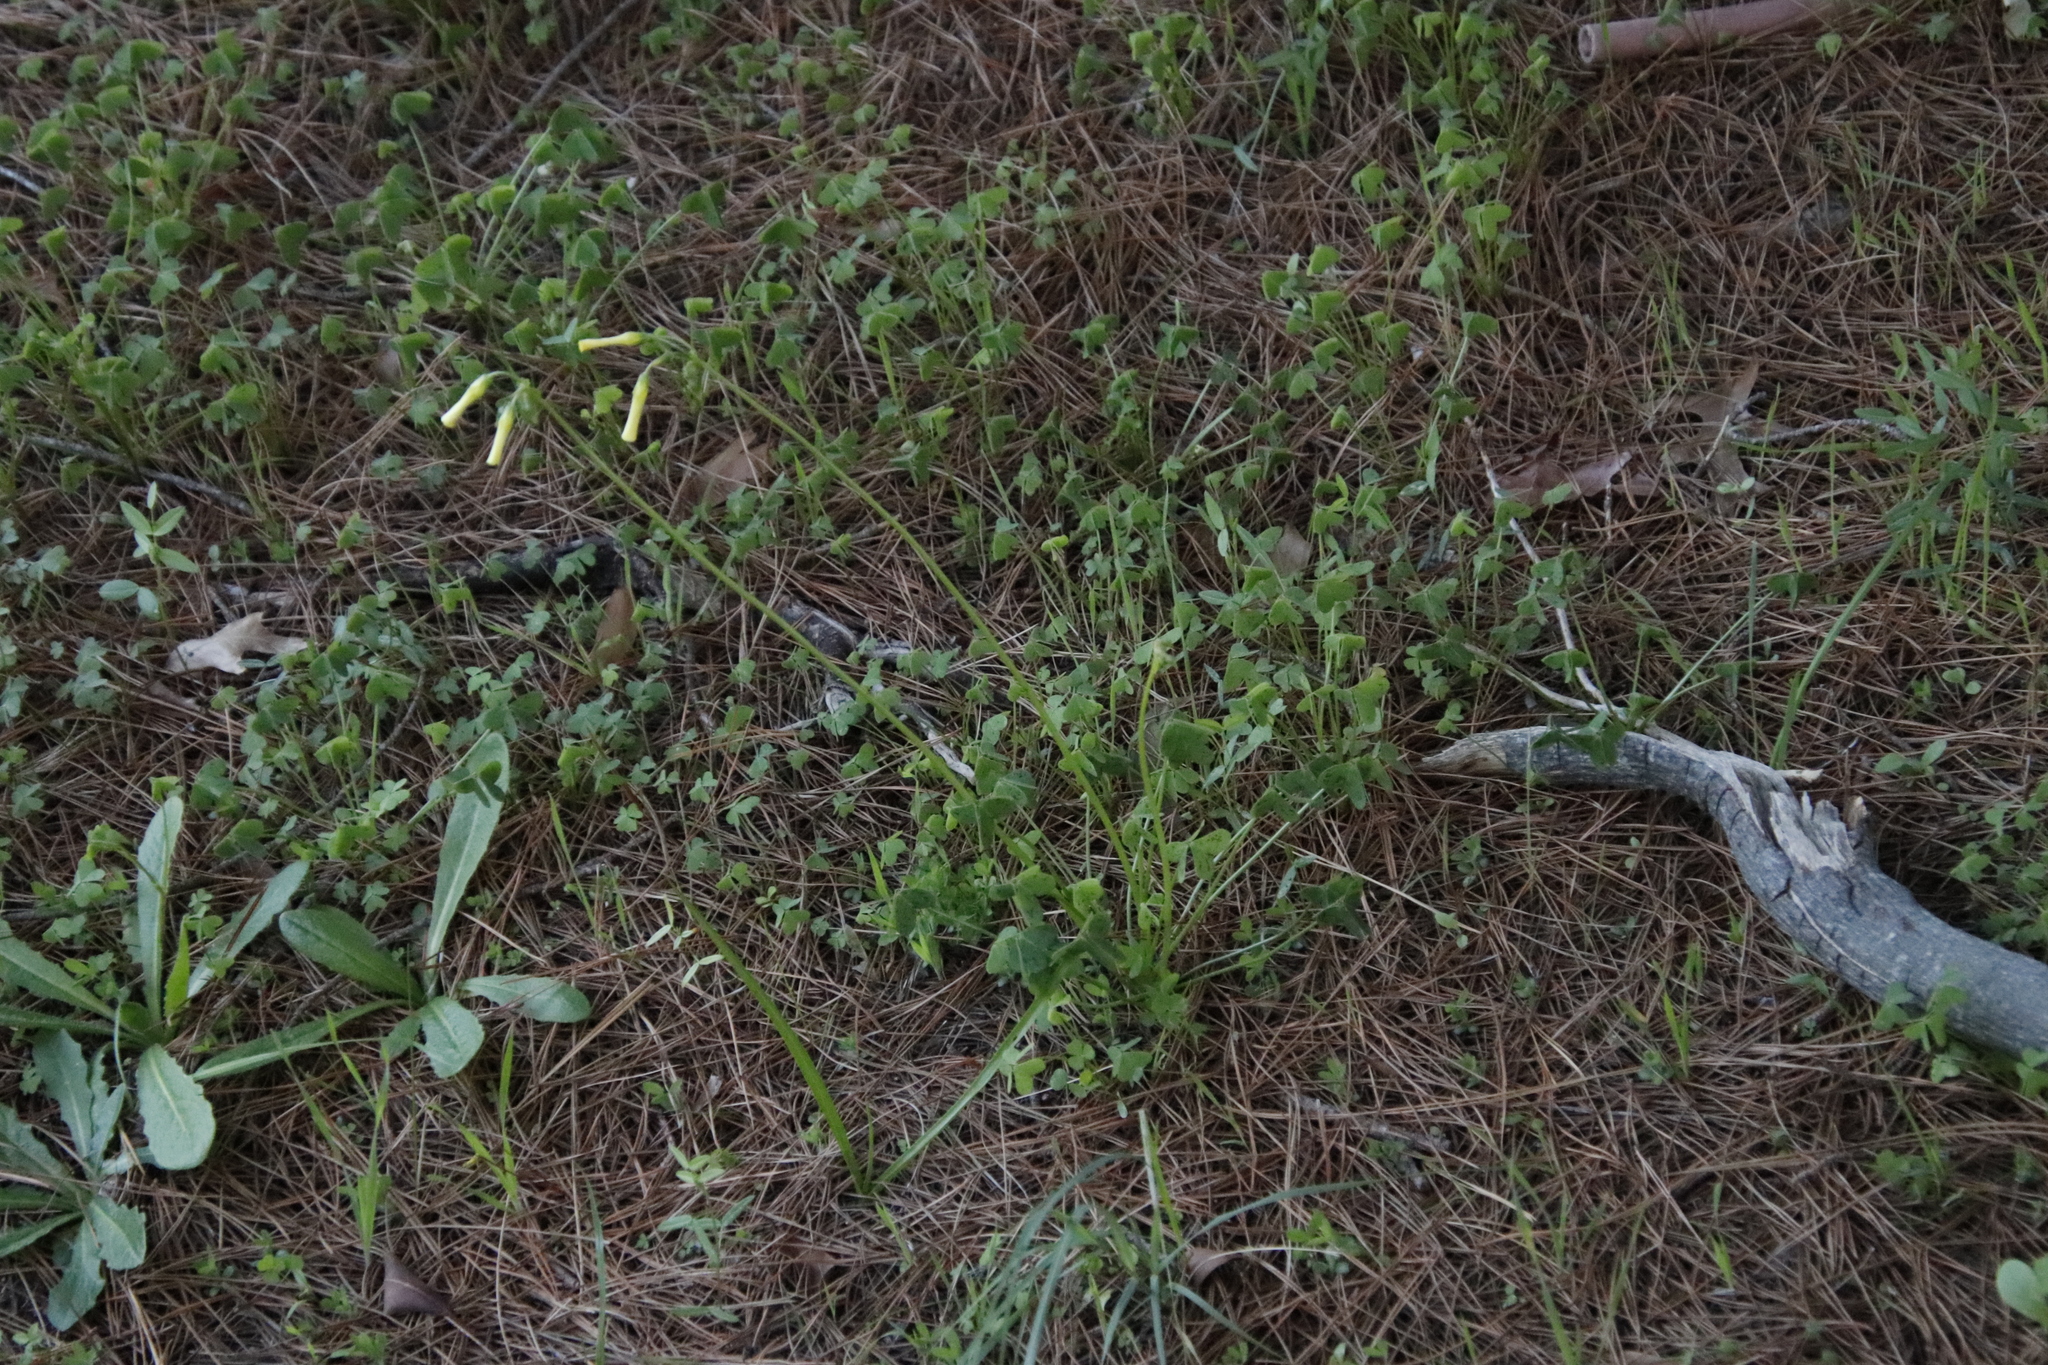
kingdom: Plantae
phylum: Tracheophyta
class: Magnoliopsida
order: Oxalidales
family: Oxalidaceae
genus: Oxalis
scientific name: Oxalis pes-caprae
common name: Bermuda-buttercup
